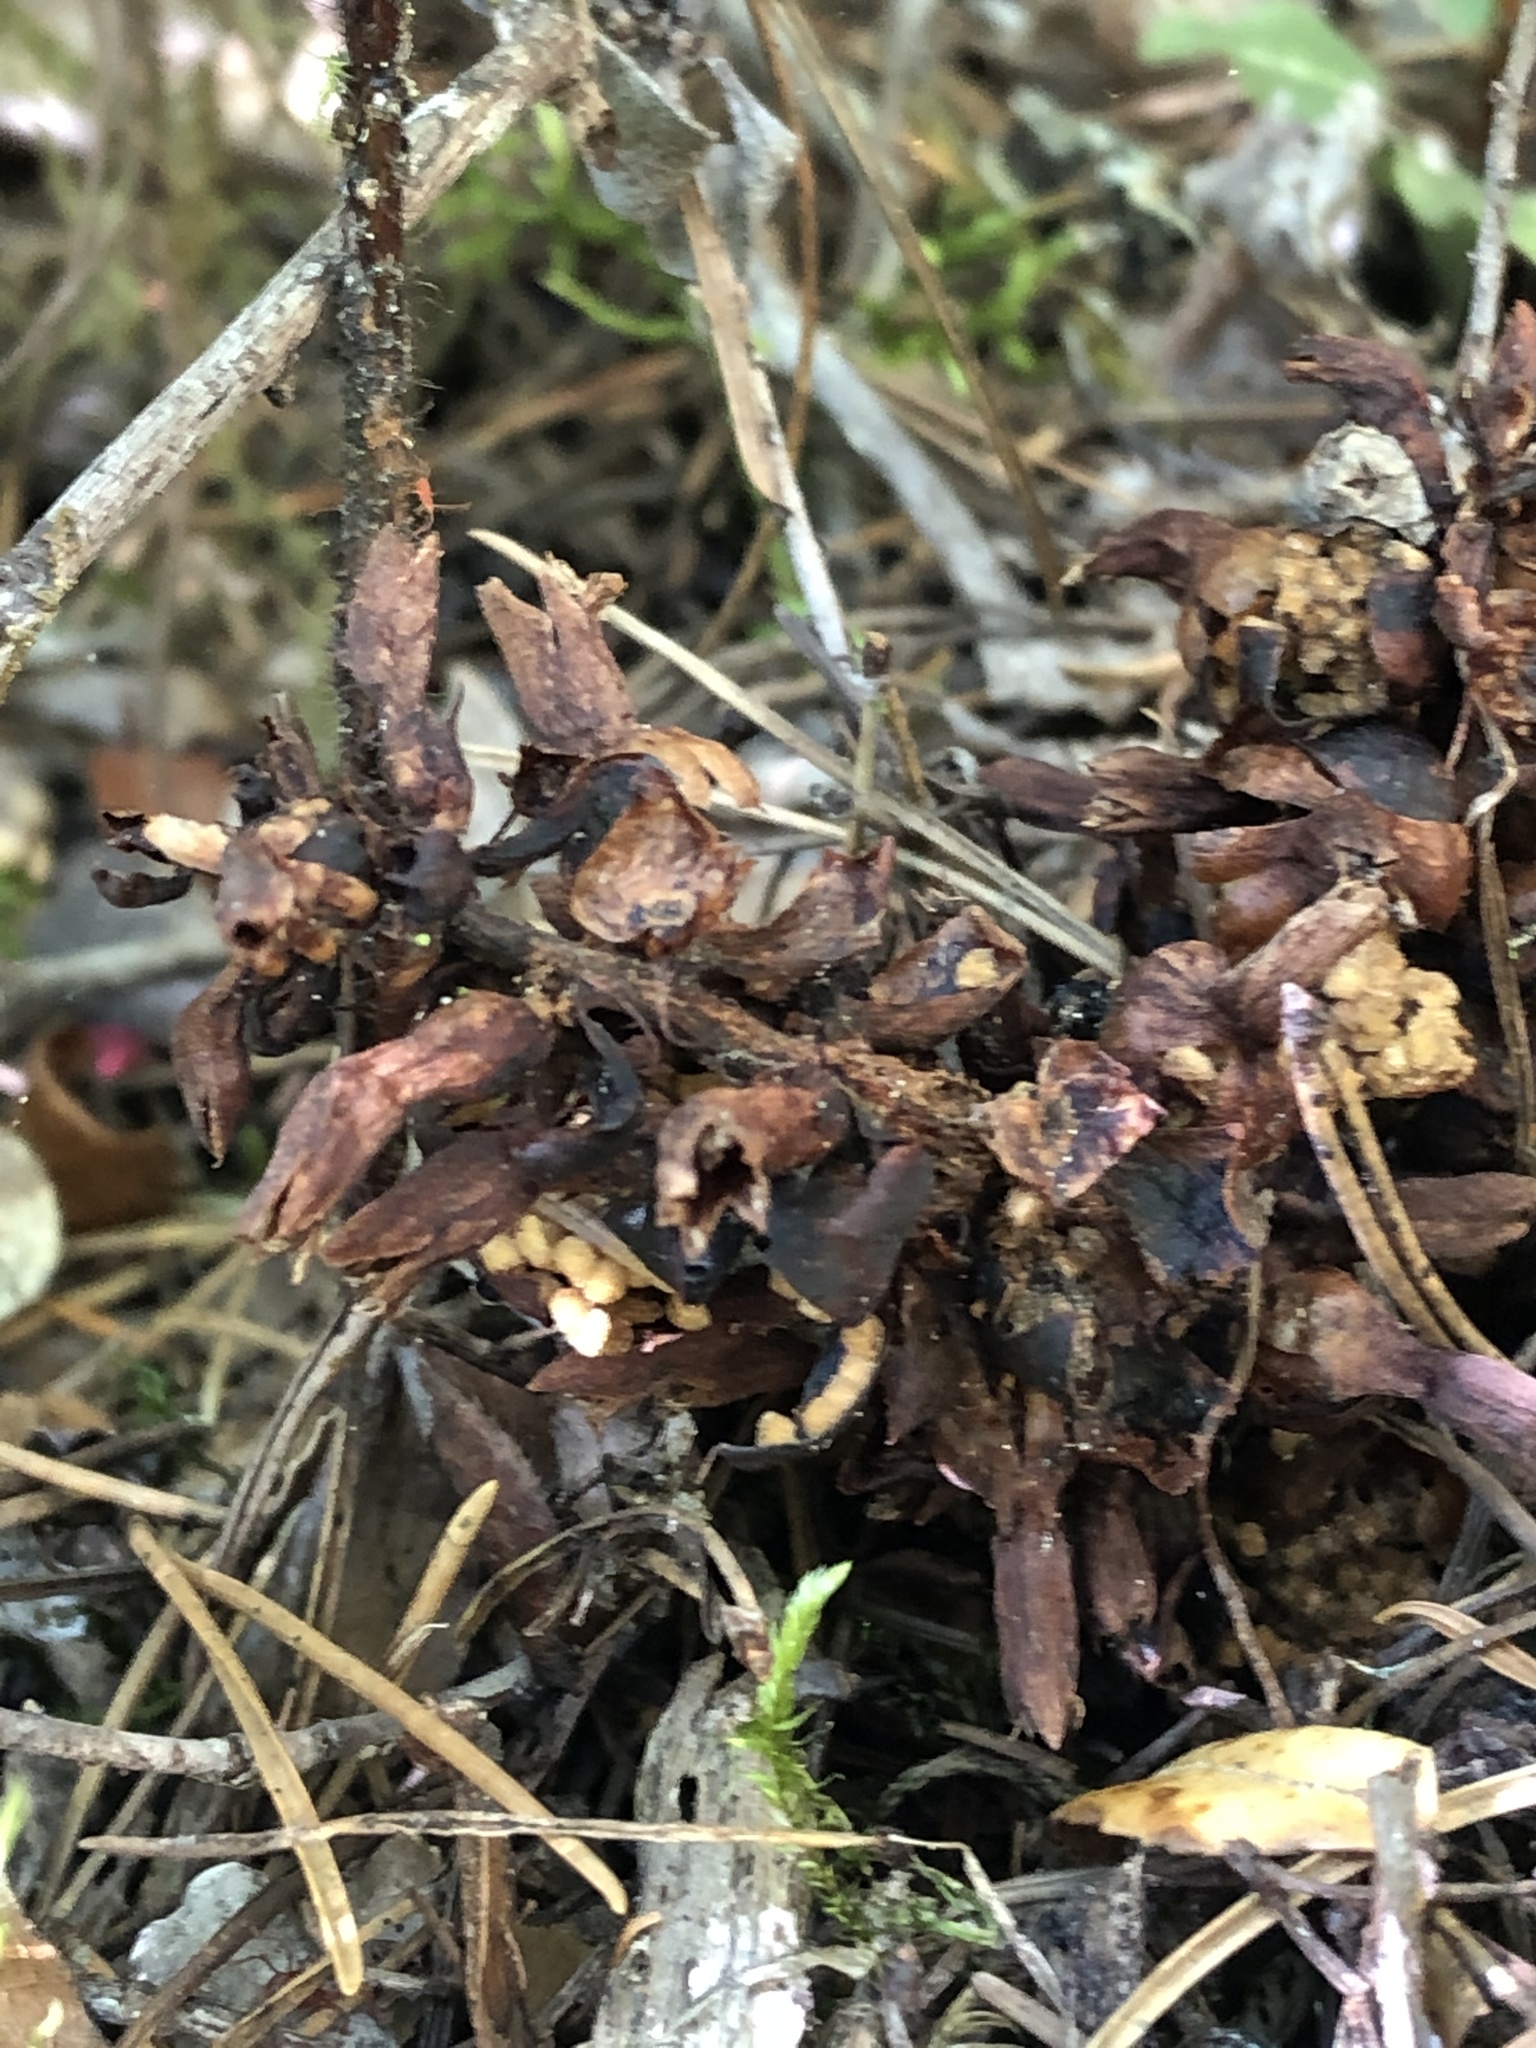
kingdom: Plantae
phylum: Tracheophyta
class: Magnoliopsida
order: Lamiales
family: Orobanchaceae
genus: Kopsiopsis
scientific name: Kopsiopsis hookeri
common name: Hooker's groundcone
